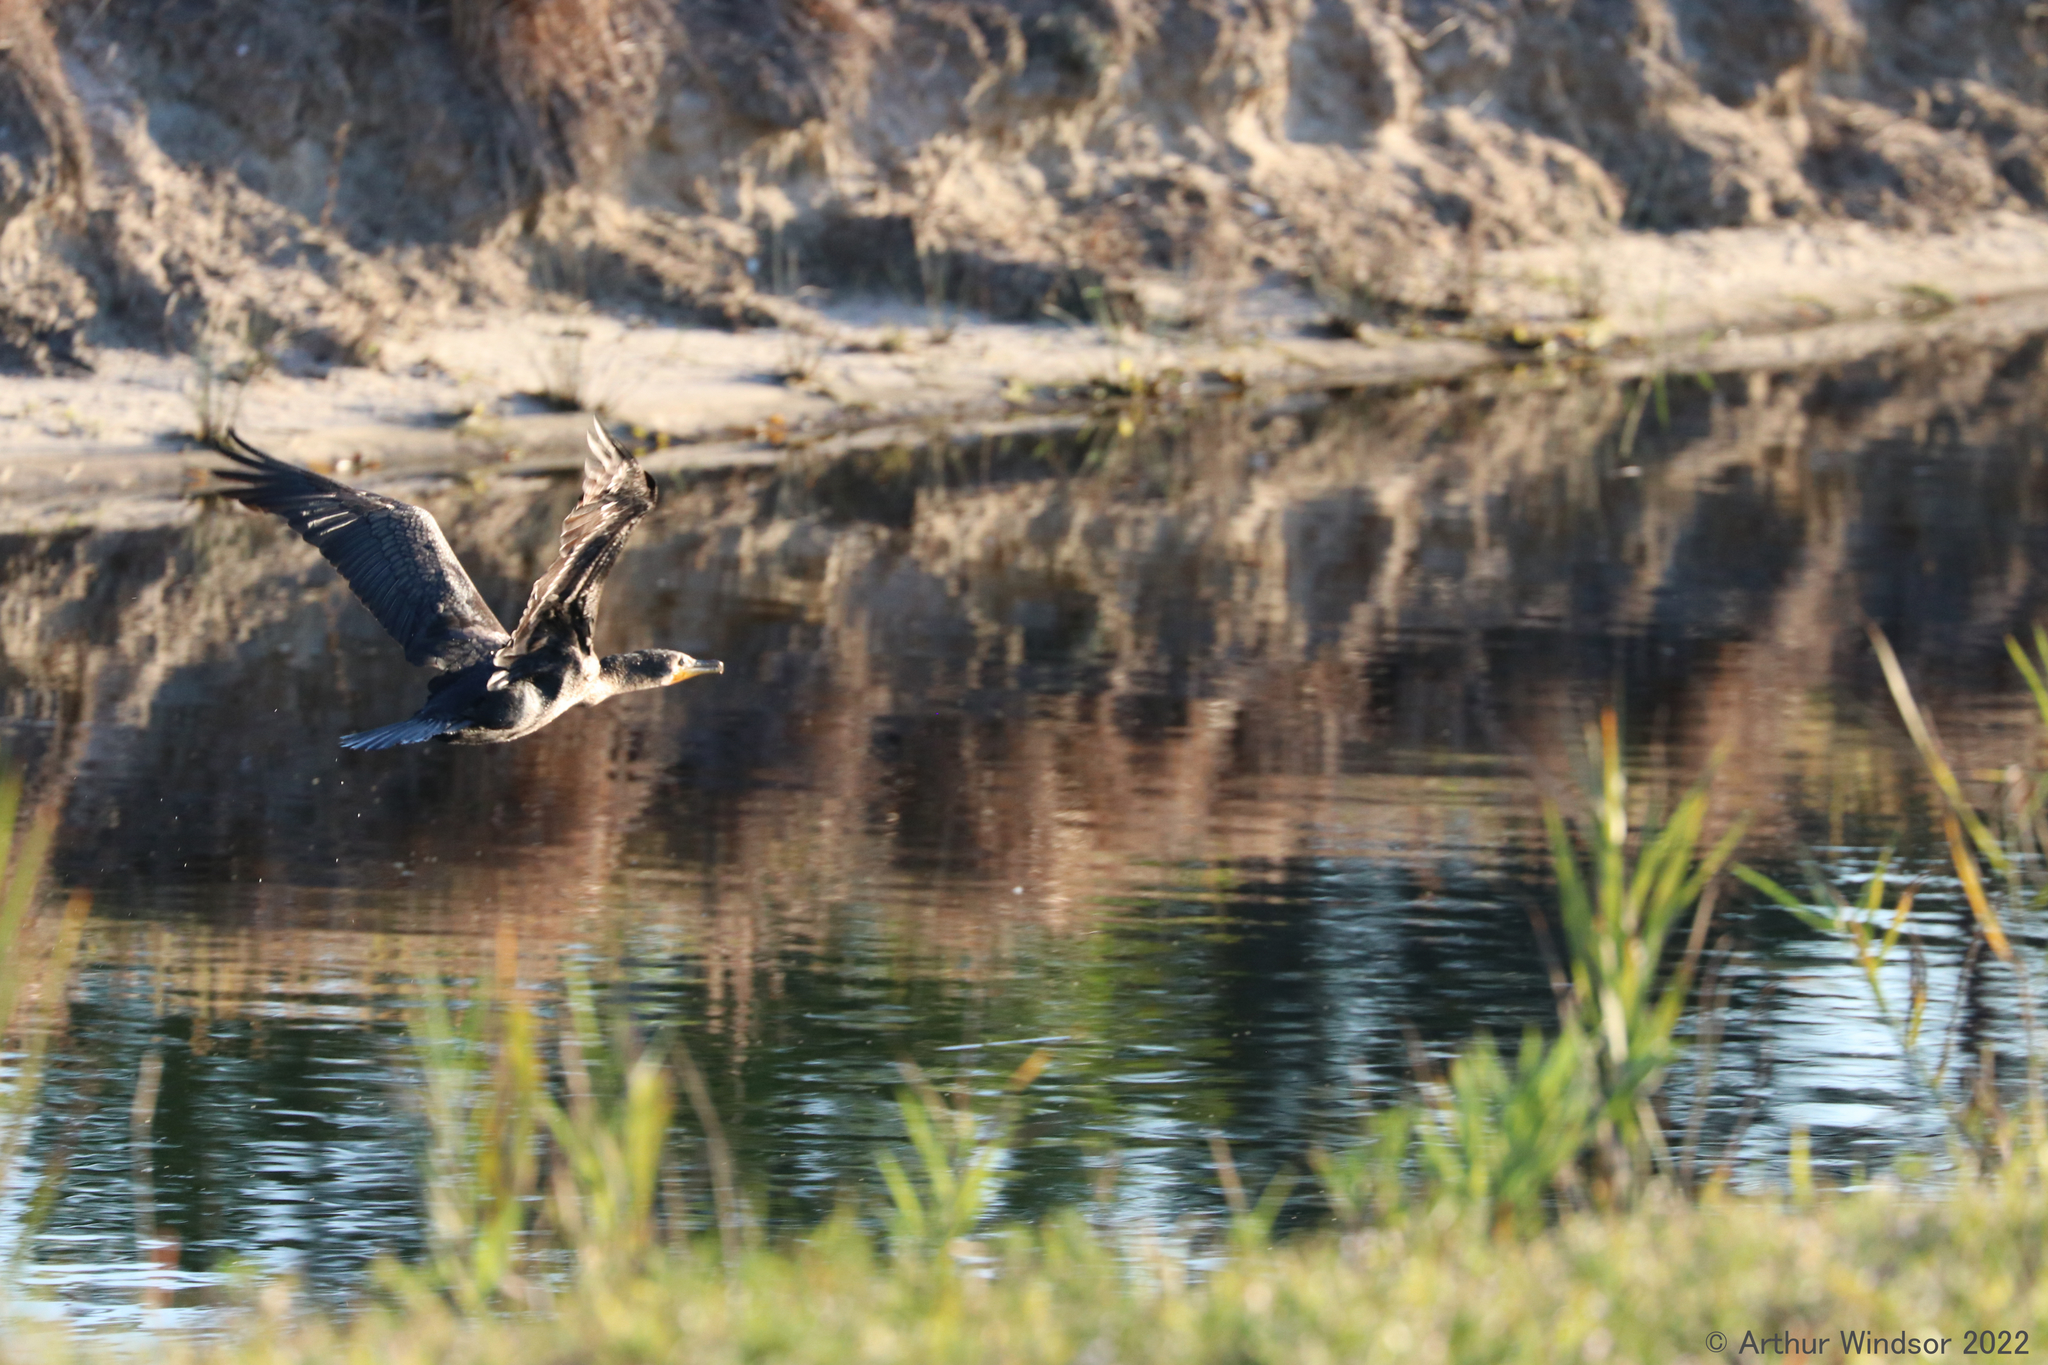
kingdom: Animalia
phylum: Chordata
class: Aves
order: Suliformes
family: Phalacrocoracidae
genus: Phalacrocorax
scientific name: Phalacrocorax auritus
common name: Double-crested cormorant
